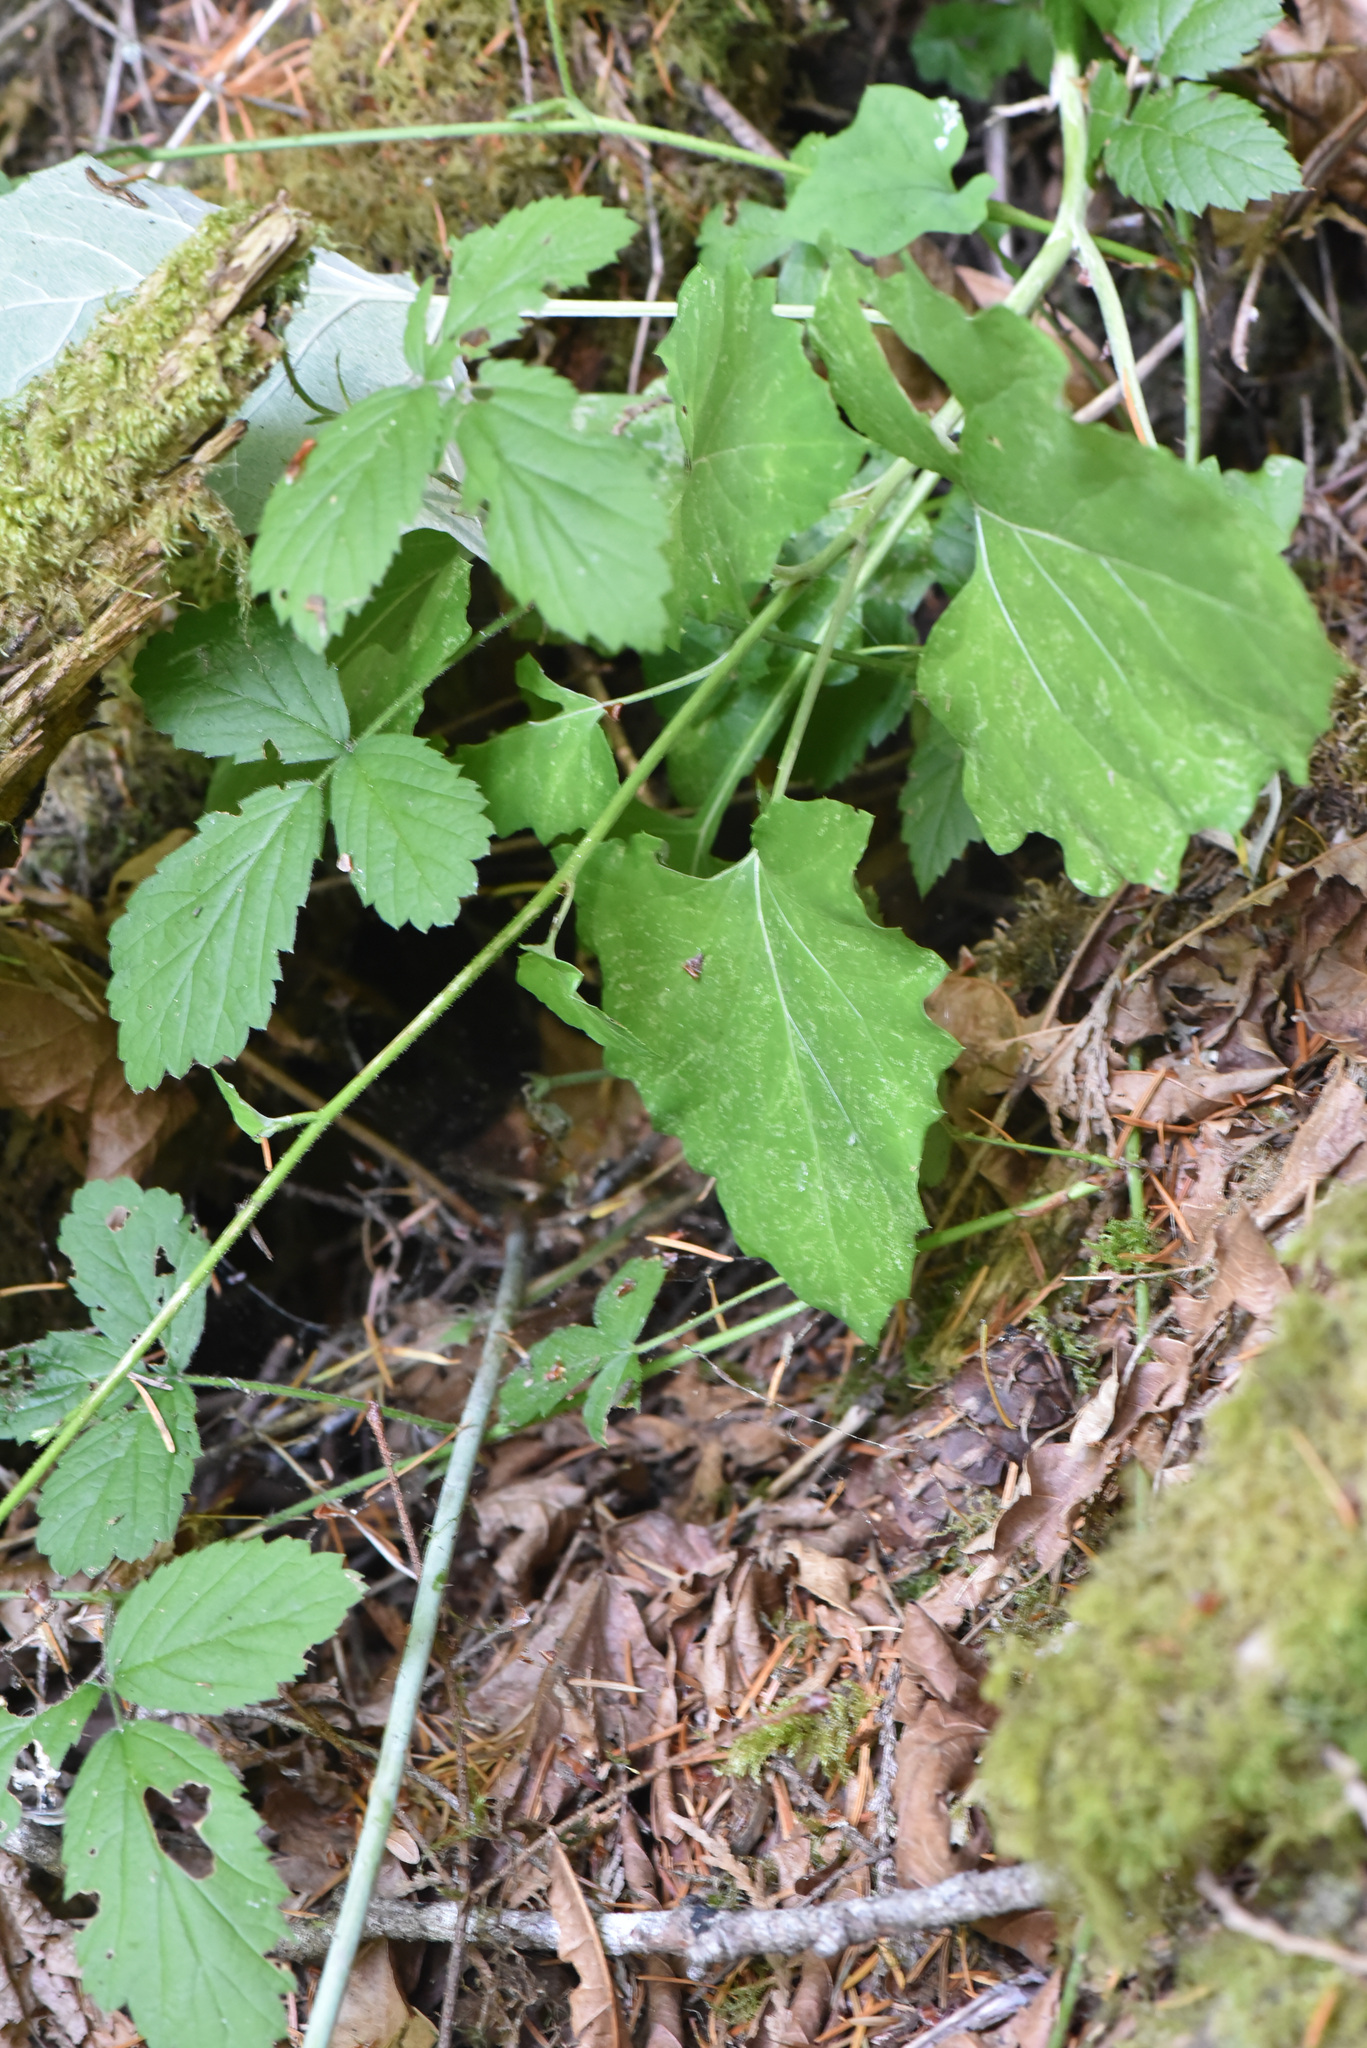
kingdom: Plantae
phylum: Tracheophyta
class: Magnoliopsida
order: Asterales
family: Asteraceae
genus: Adenocaulon
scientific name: Adenocaulon bicolor
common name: Trailplant
